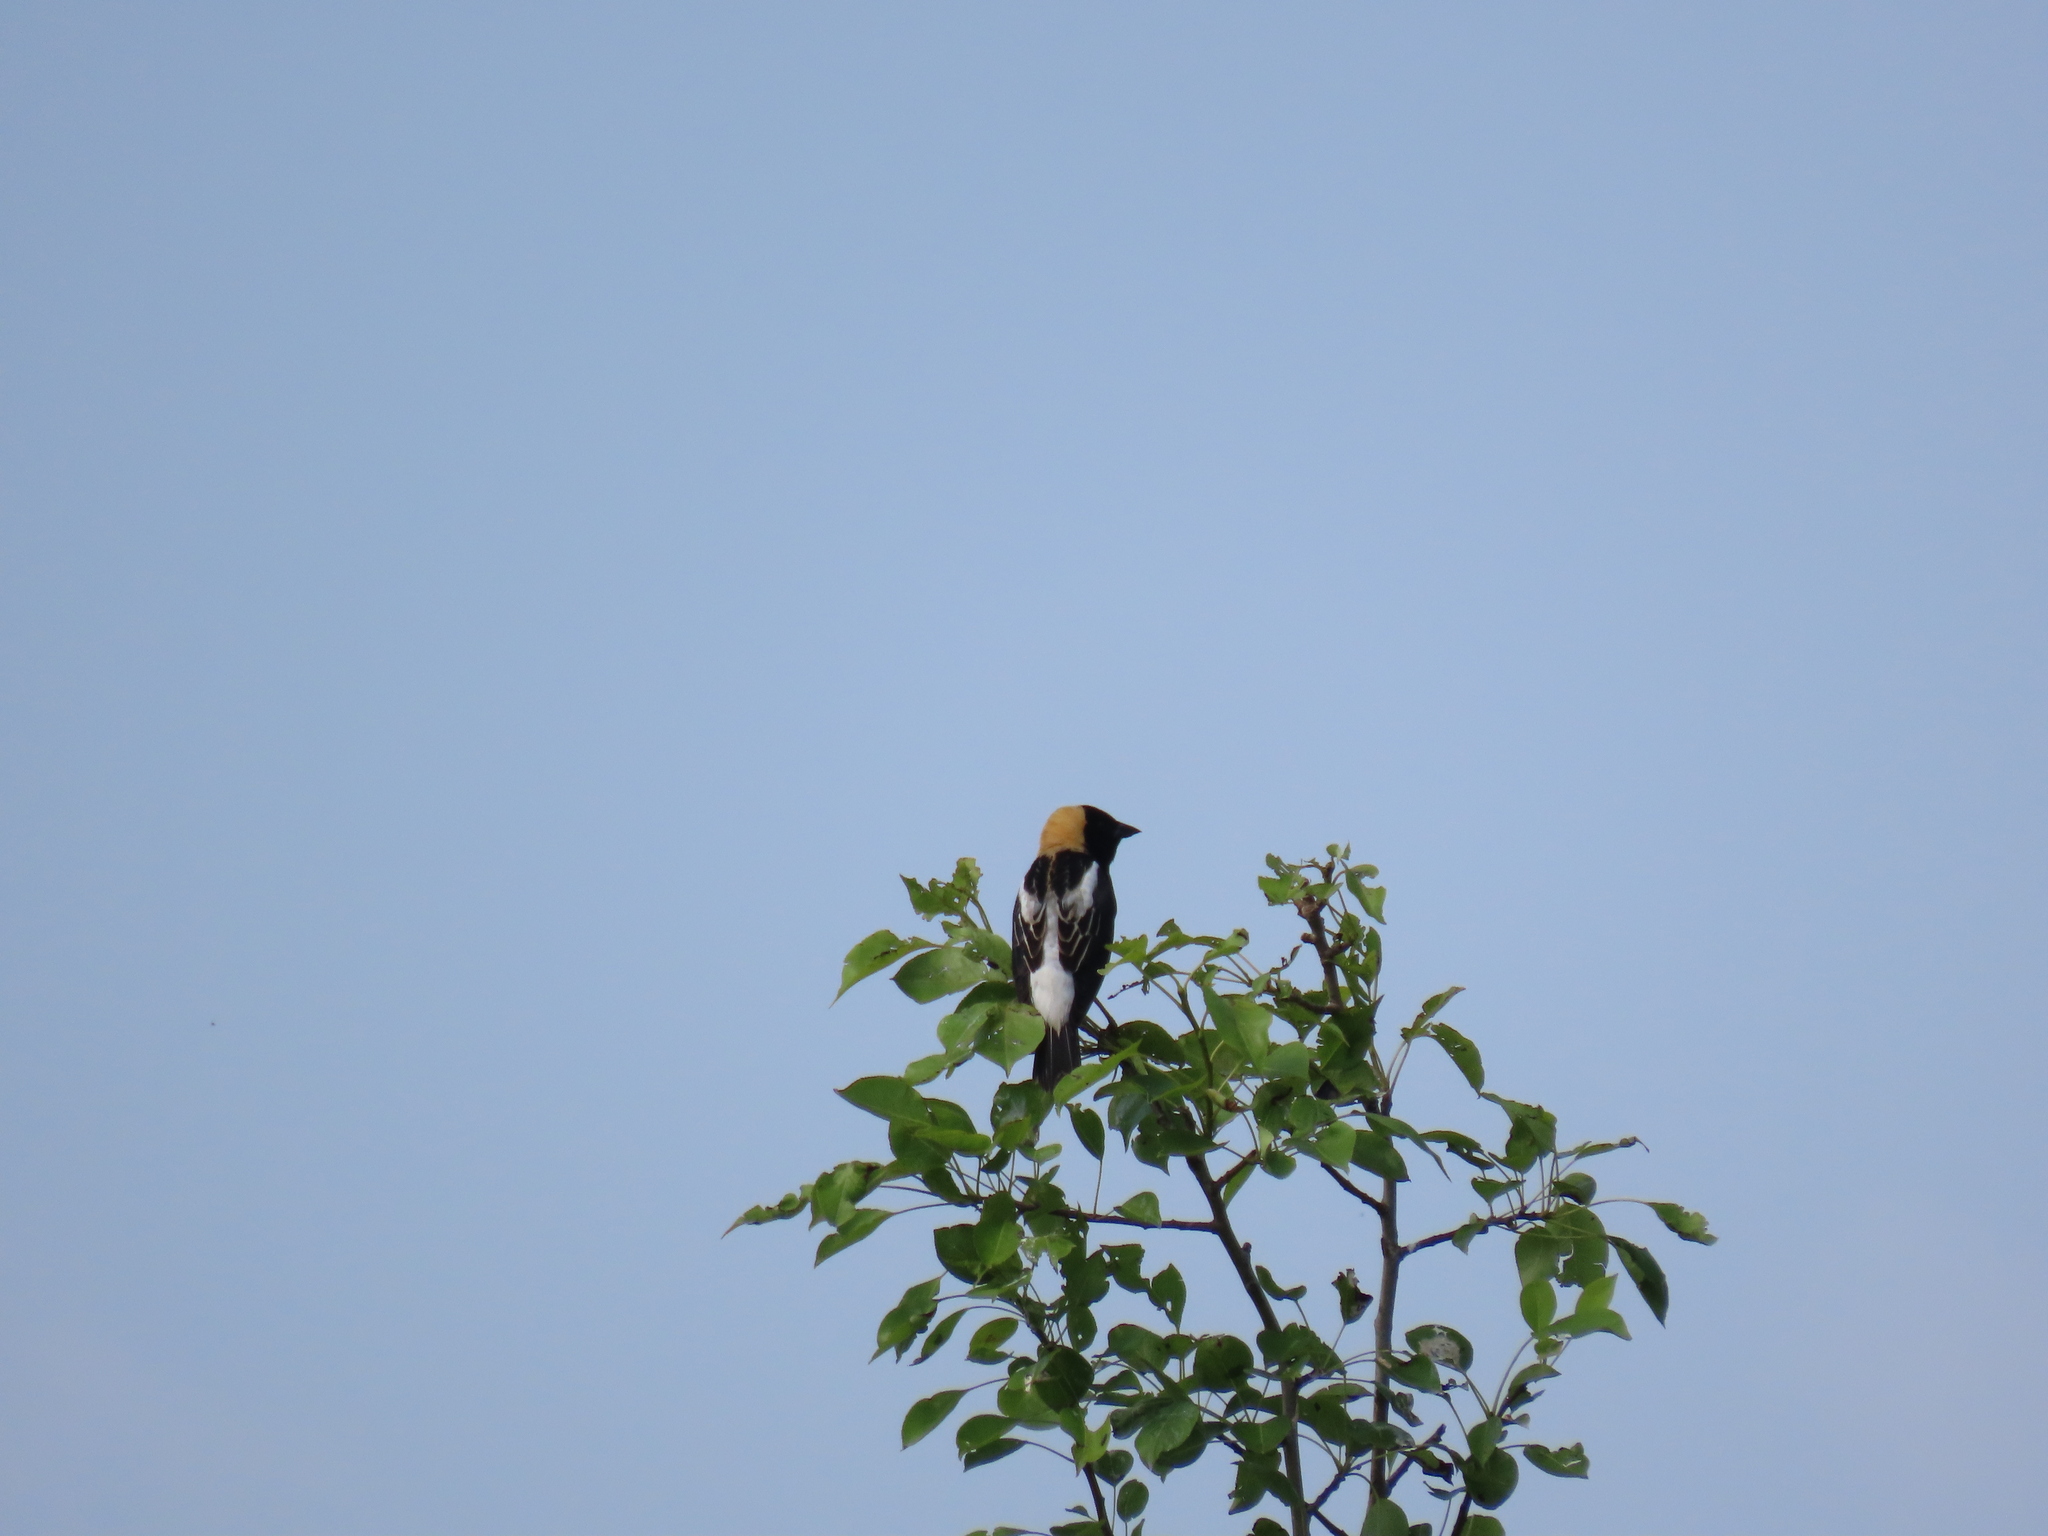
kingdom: Animalia
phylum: Chordata
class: Aves
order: Passeriformes
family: Icteridae
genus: Dolichonyx
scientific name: Dolichonyx oryzivorus
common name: Bobolink
